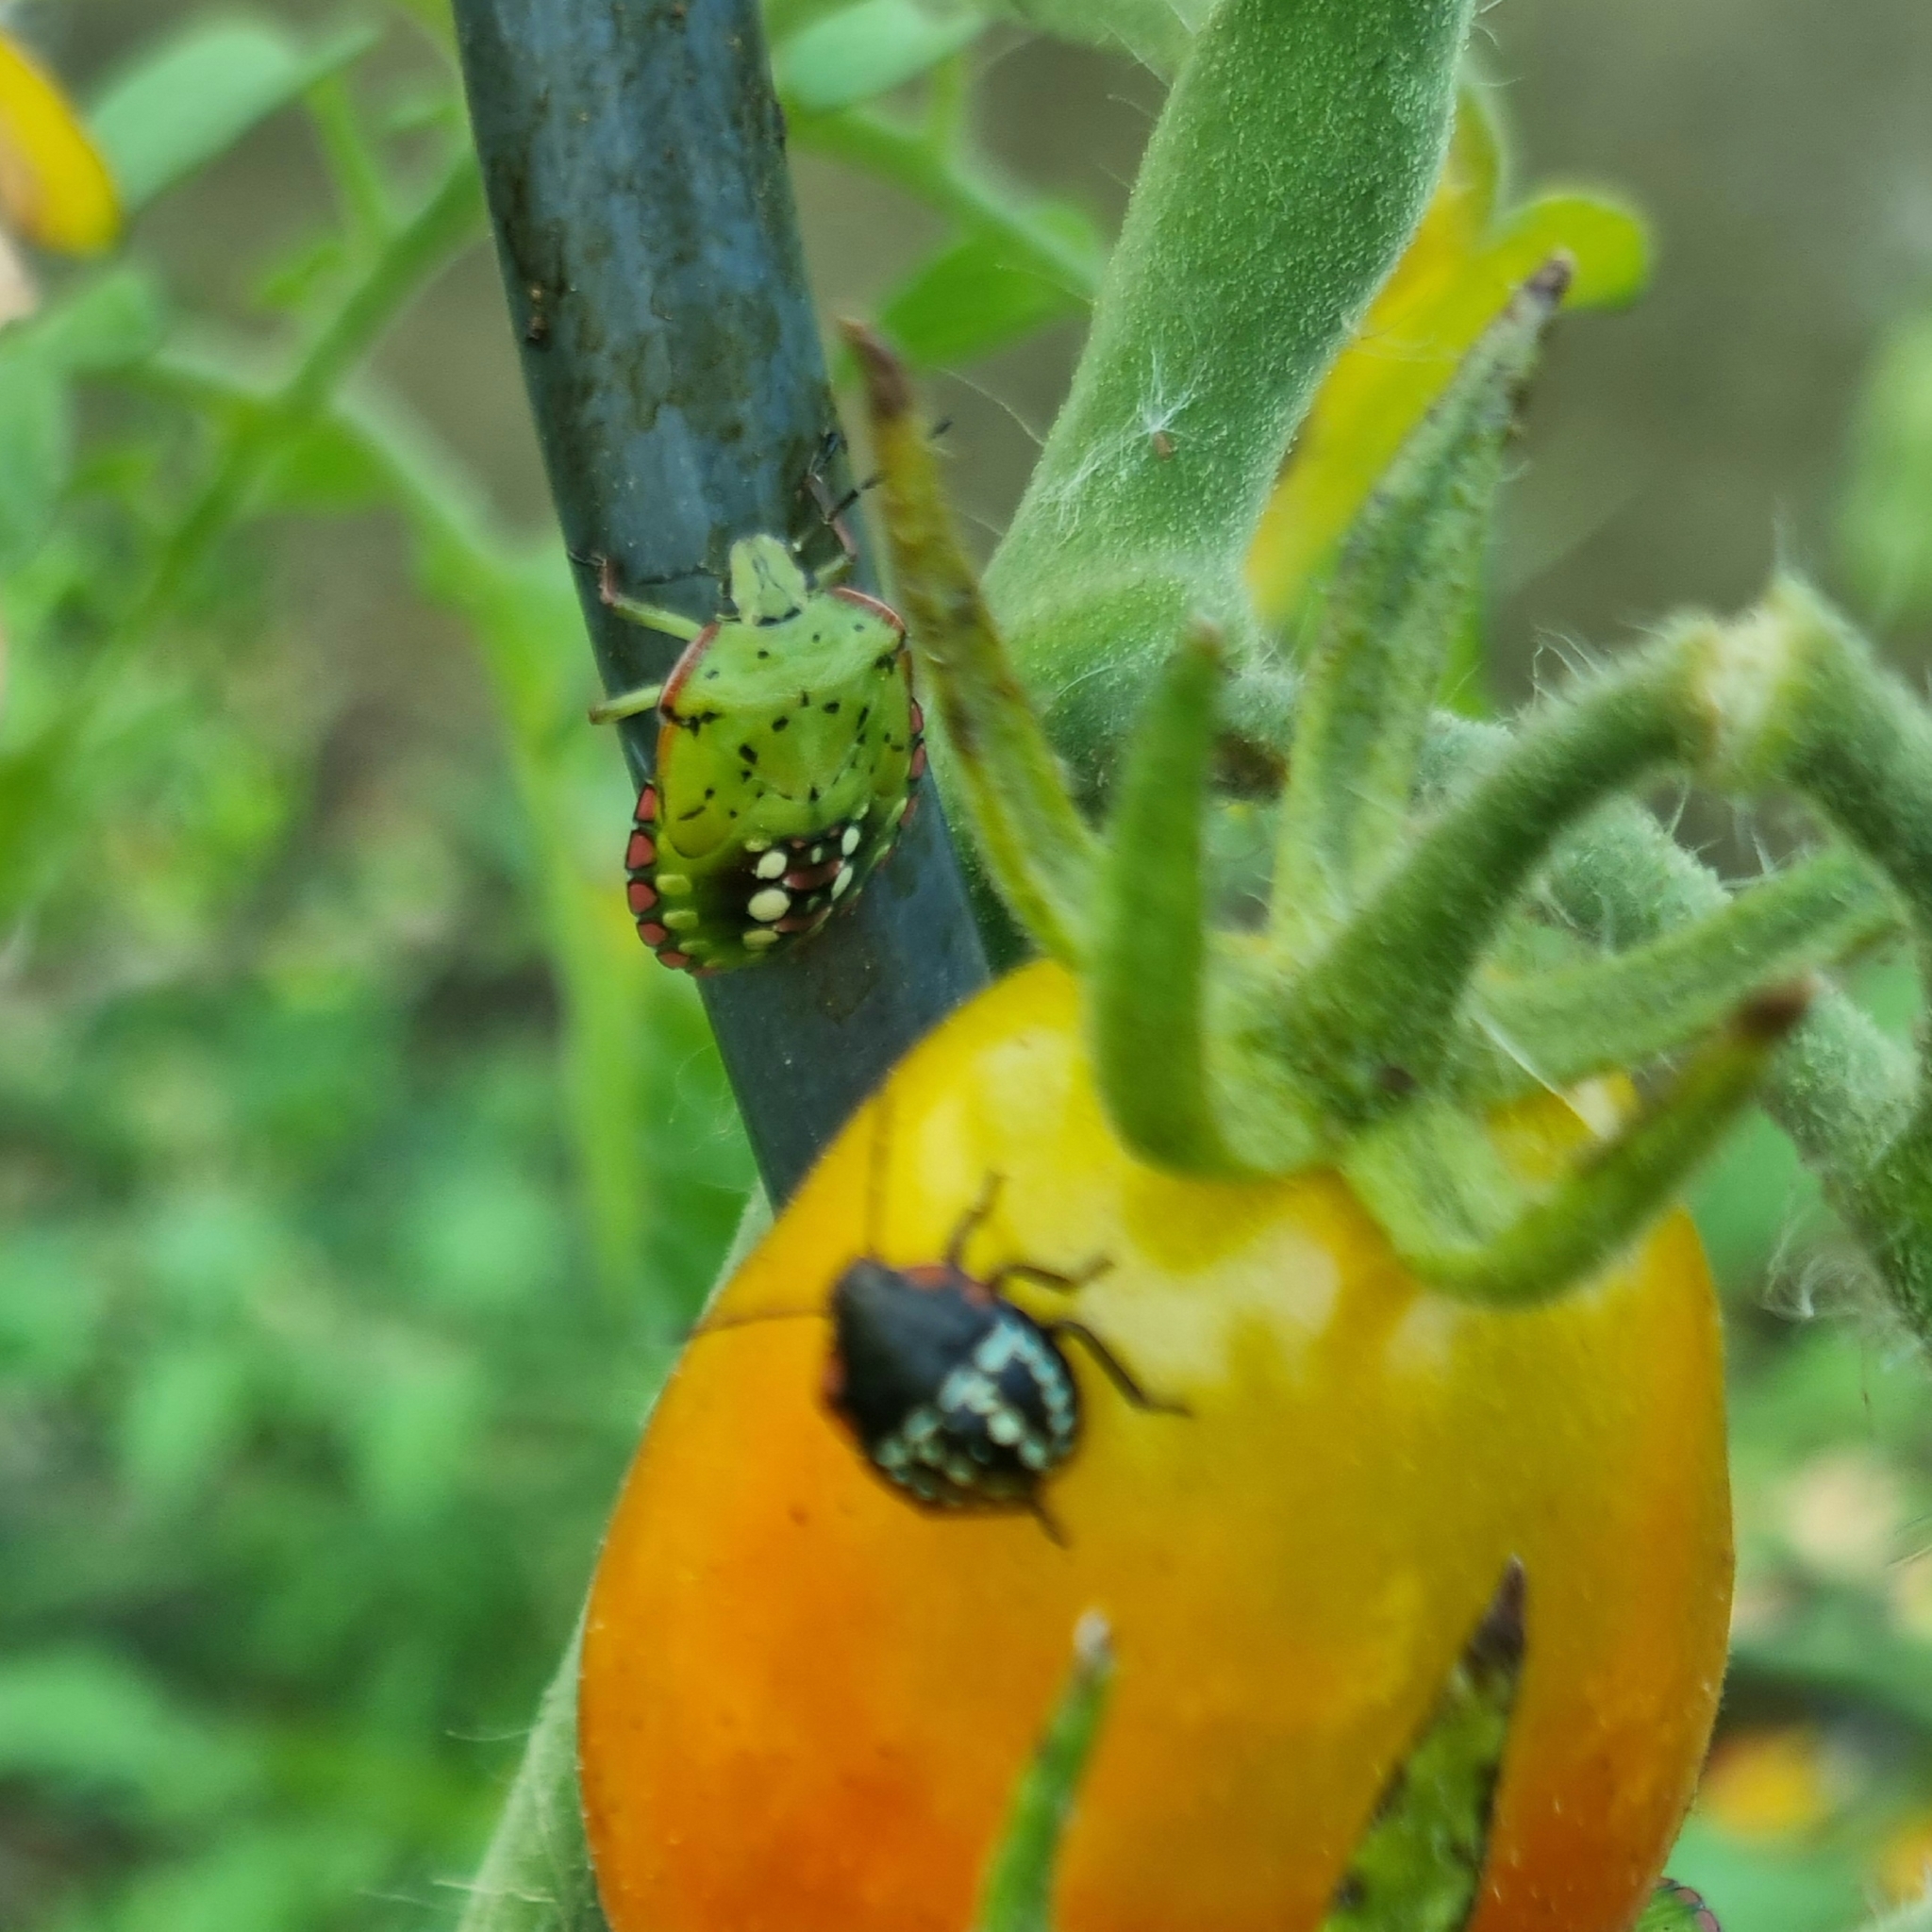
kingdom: Animalia
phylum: Arthropoda
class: Insecta
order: Hemiptera
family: Pentatomidae
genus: Nezara
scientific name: Nezara viridula
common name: Southern green stink bug
